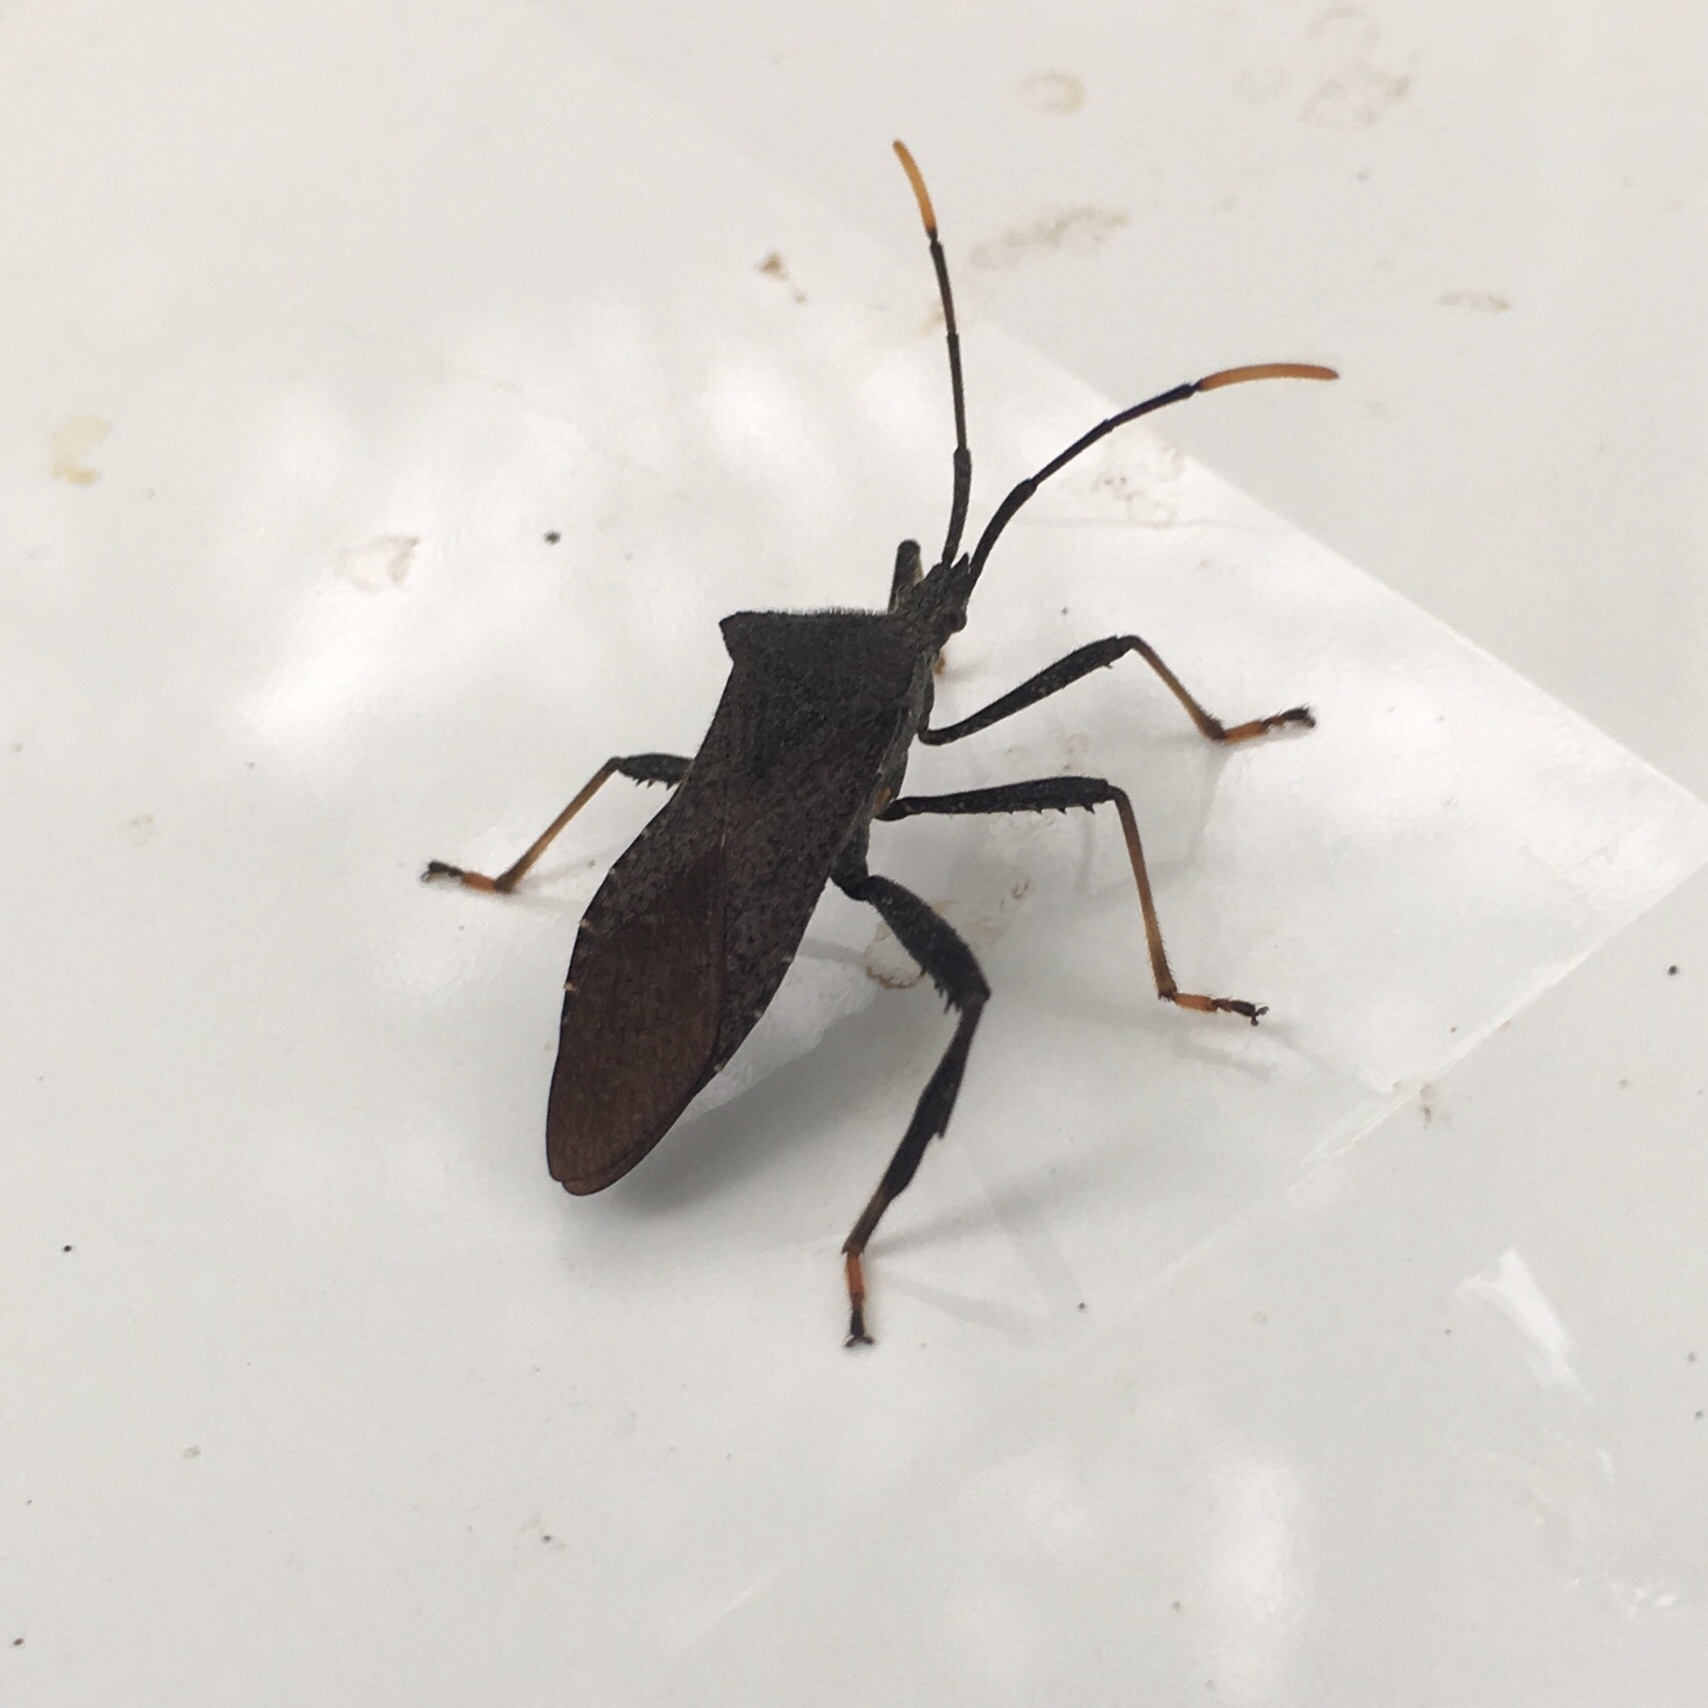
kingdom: Animalia
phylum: Arthropoda
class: Insecta
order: Hemiptera
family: Coreidae
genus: Acanthocephala
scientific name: Acanthocephala terminalis
